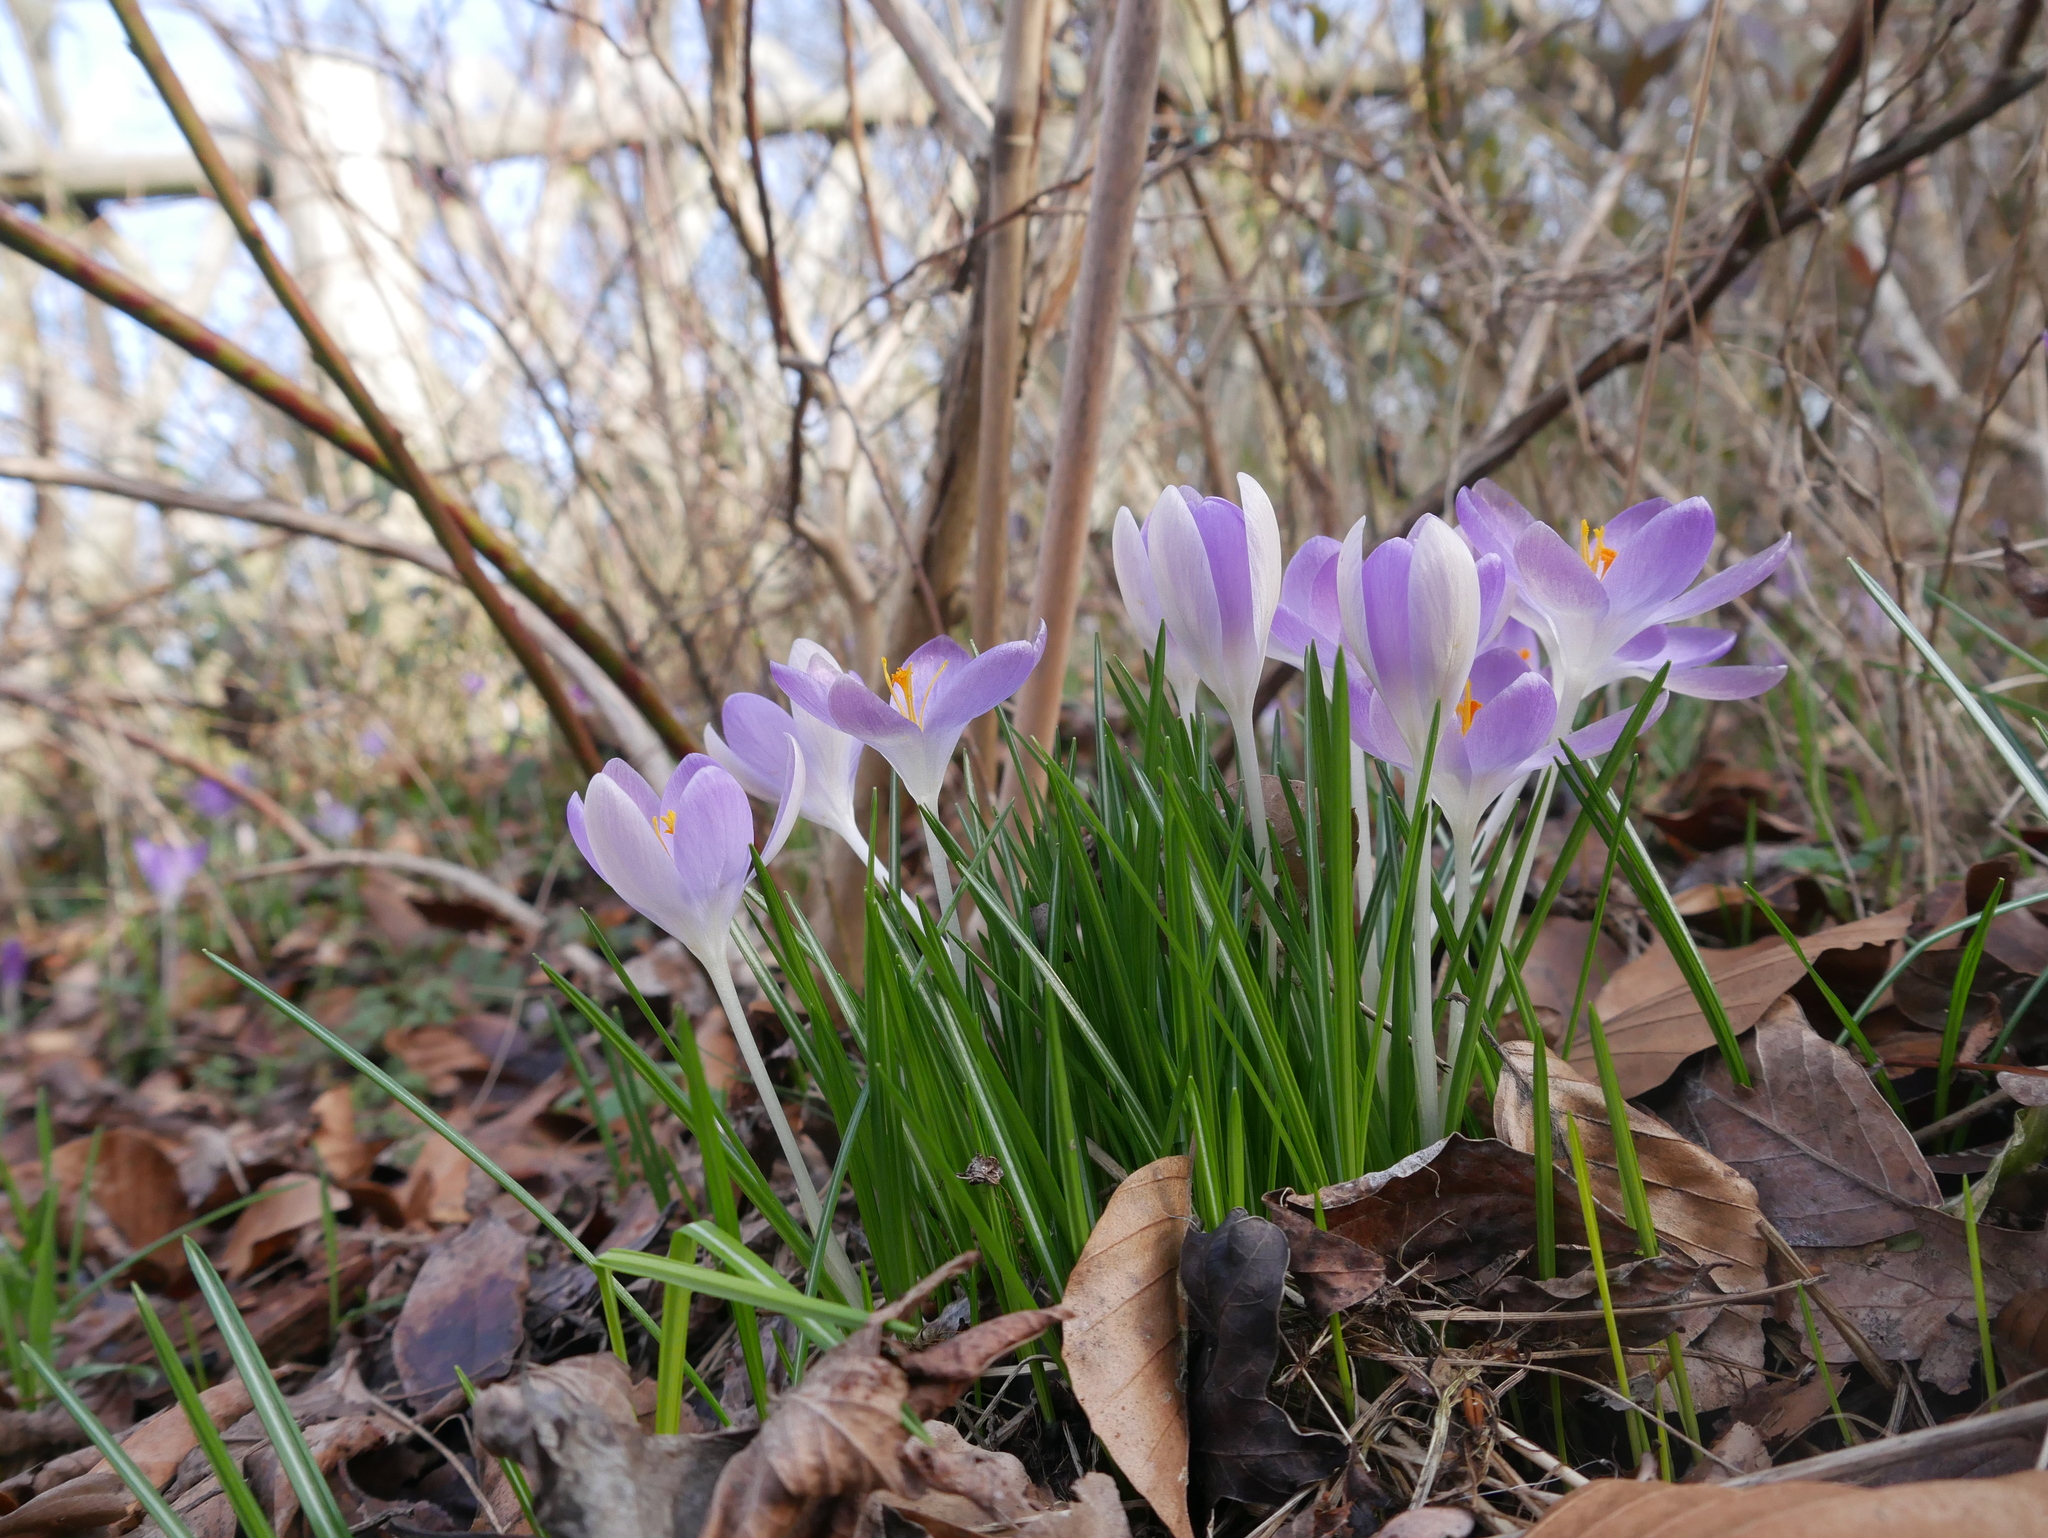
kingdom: Plantae
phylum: Tracheophyta
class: Liliopsida
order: Asparagales
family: Iridaceae
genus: Crocus
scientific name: Crocus tommasinianus
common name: Early crocus
